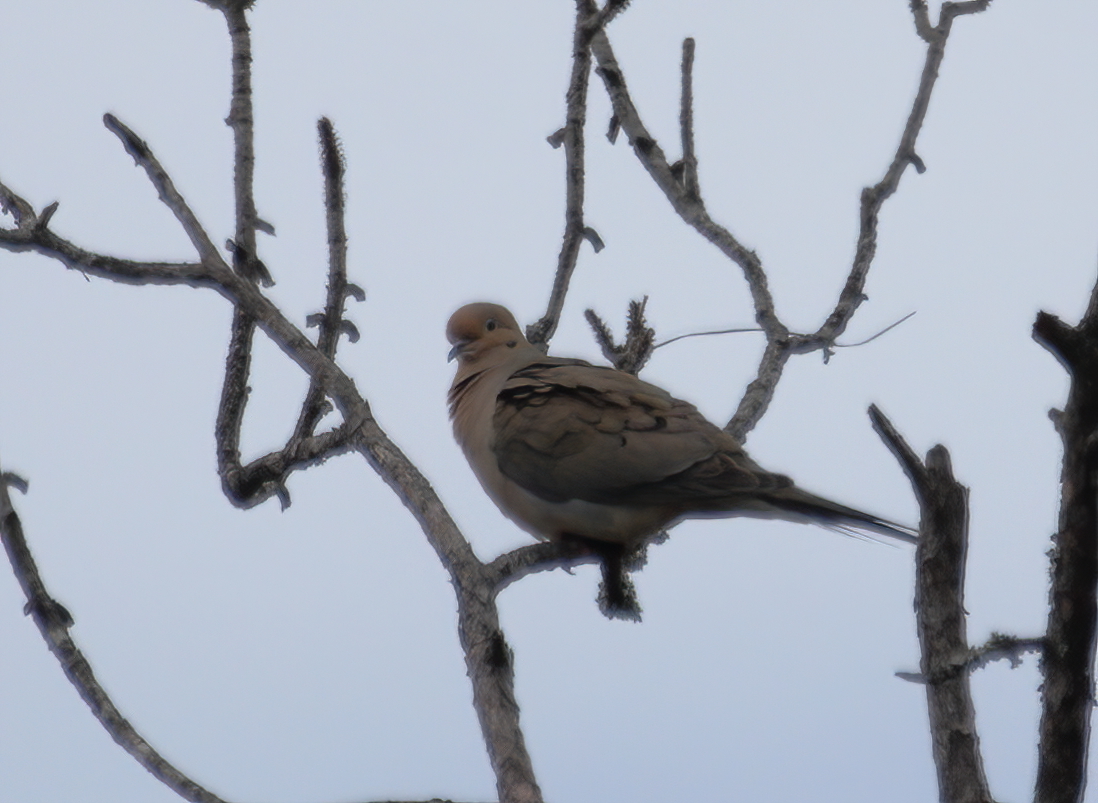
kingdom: Animalia
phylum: Chordata
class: Aves
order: Columbiformes
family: Columbidae
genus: Zenaida
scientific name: Zenaida macroura
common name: Mourning dove
